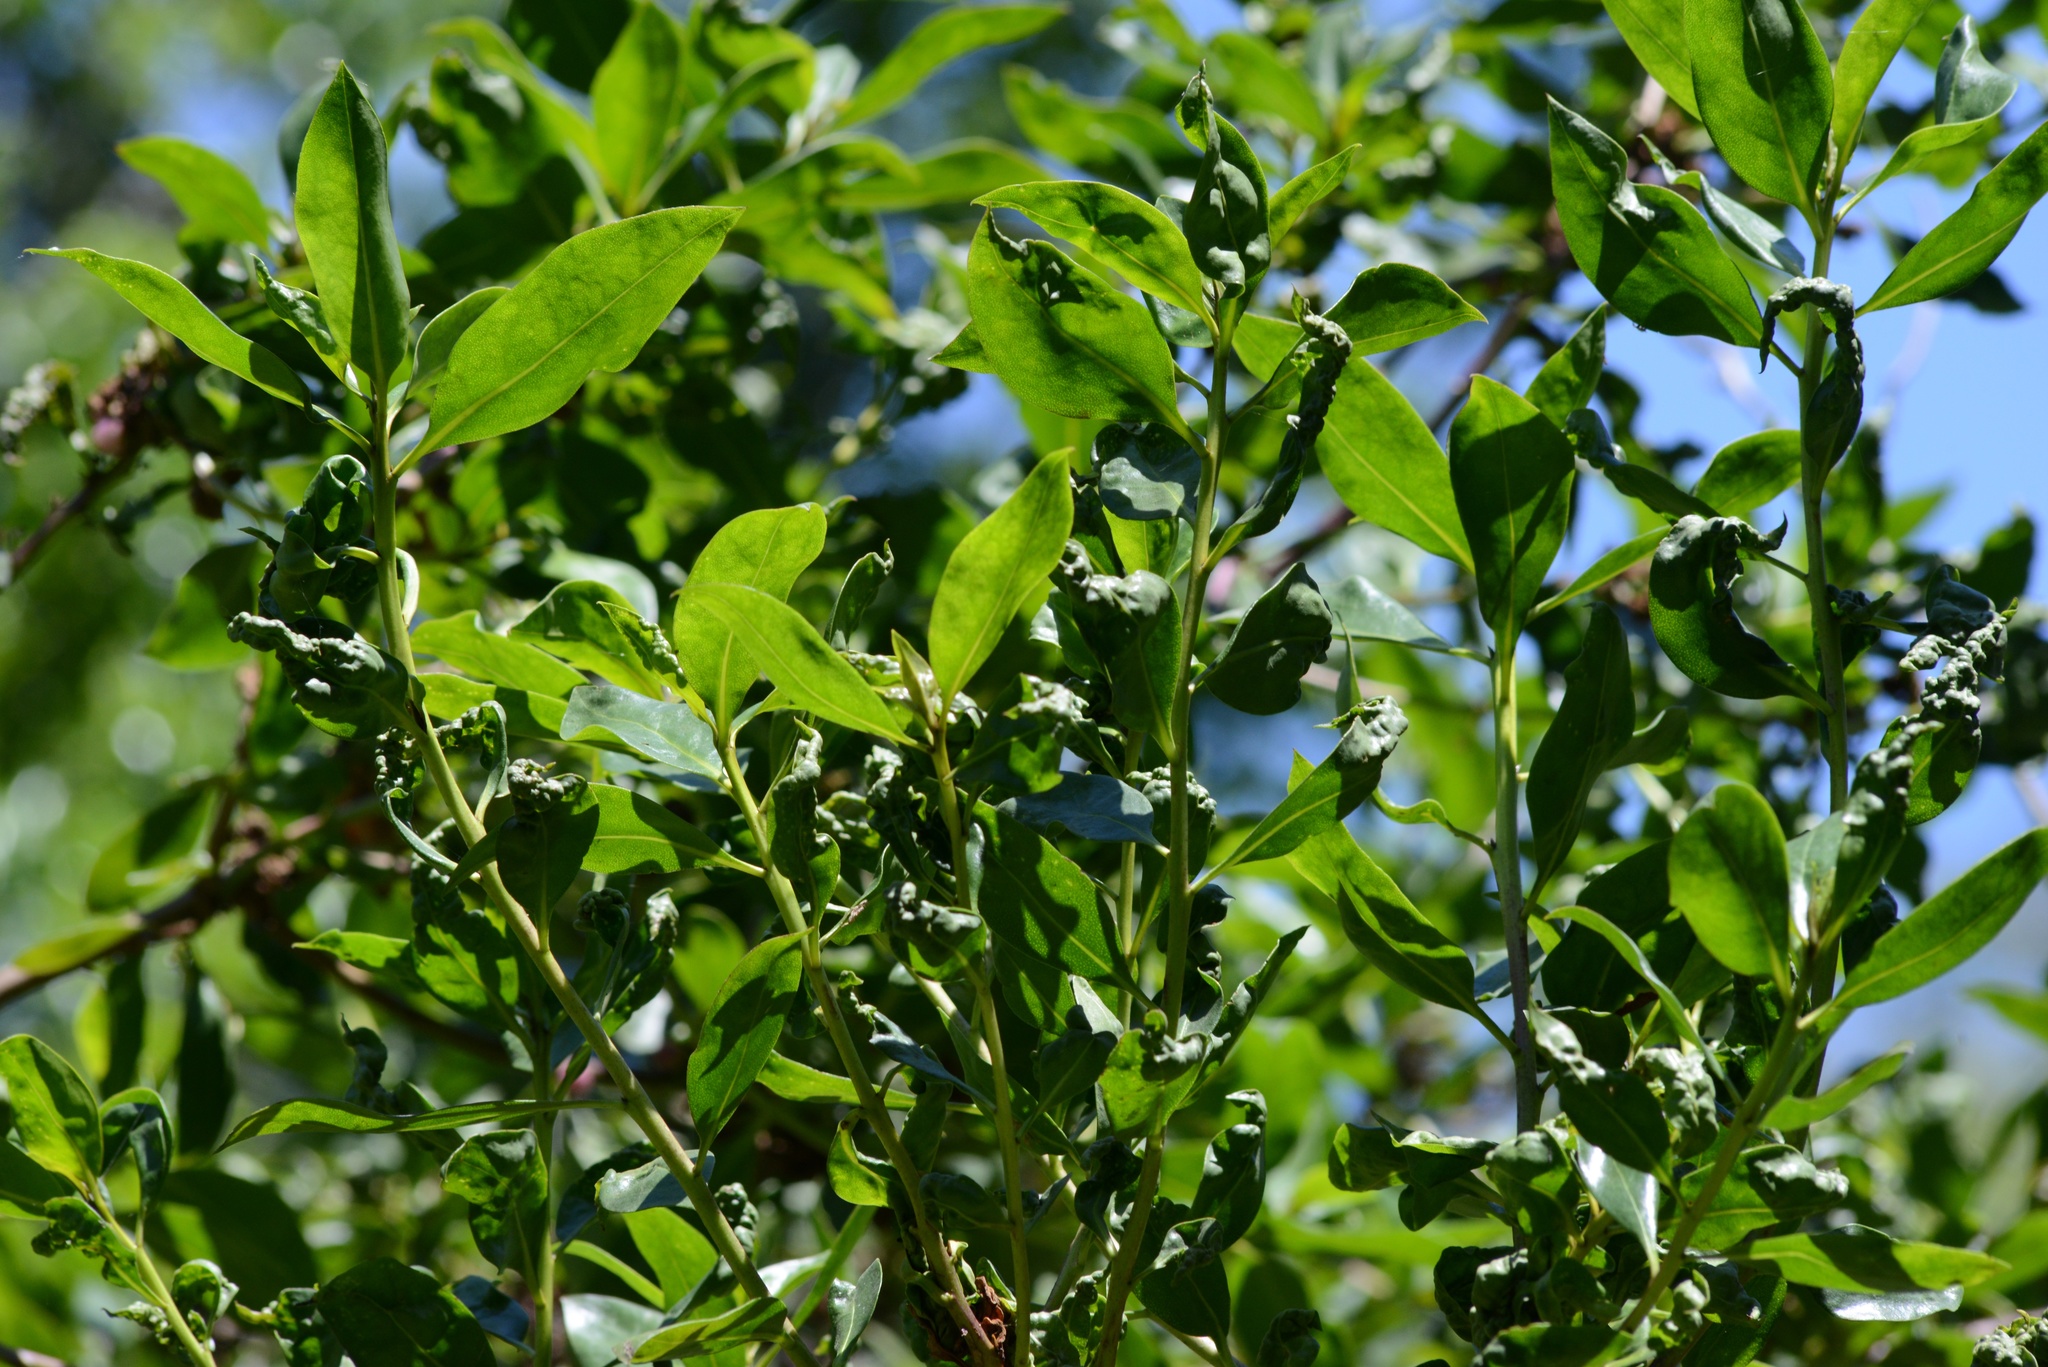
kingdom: Animalia
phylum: Arthropoda
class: Insecta
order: Thysanoptera
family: Phlaeothripidae
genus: Klambothrips
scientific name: Klambothrips myopori
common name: Myoporum thrips
